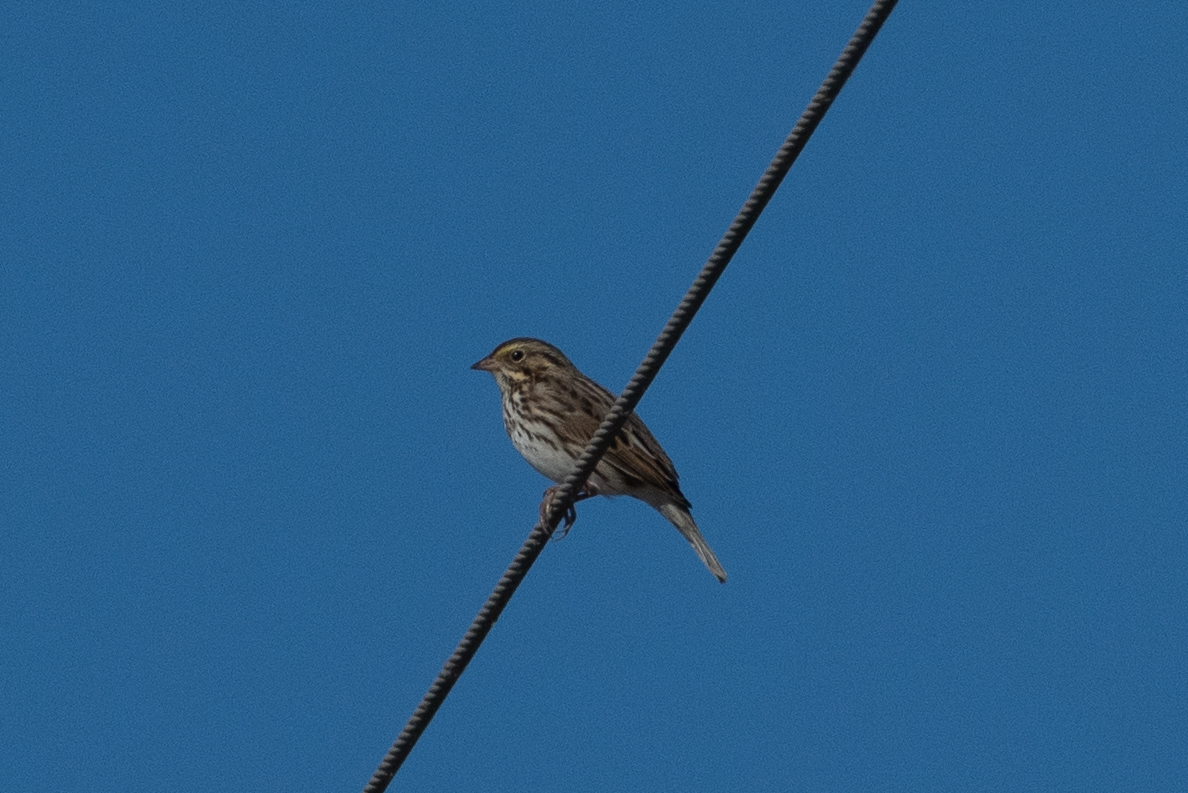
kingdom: Animalia
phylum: Chordata
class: Aves
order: Passeriformes
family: Passerellidae
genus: Passerculus
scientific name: Passerculus sandwichensis
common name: Savannah sparrow
